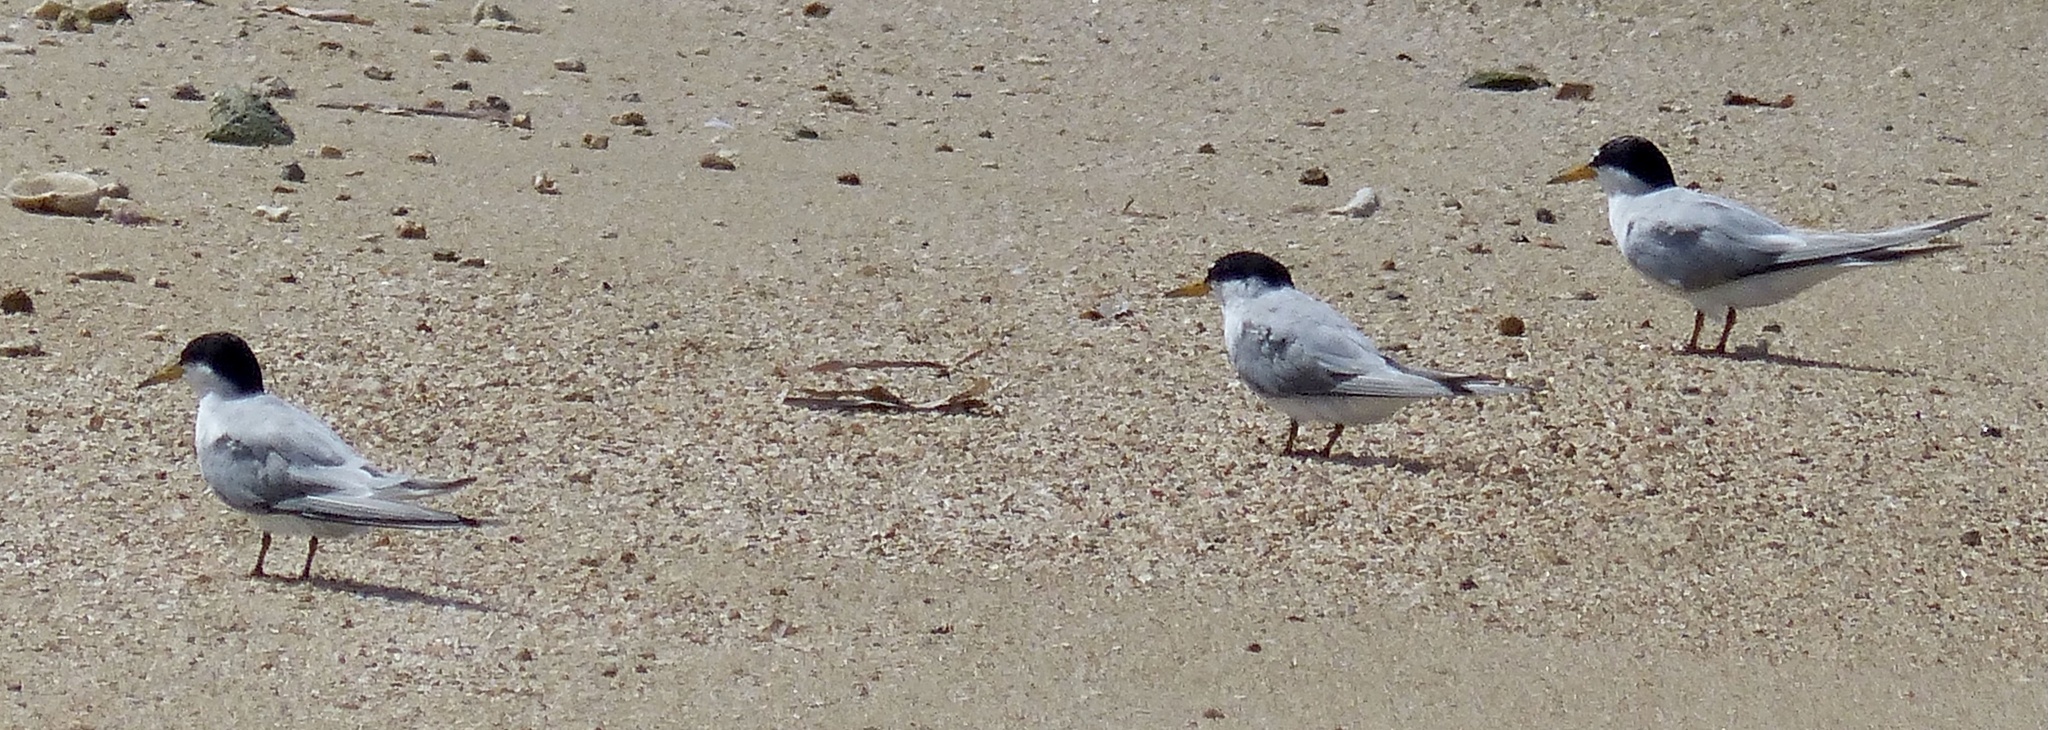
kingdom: Animalia
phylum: Chordata
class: Aves
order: Charadriiformes
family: Laridae
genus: Sternula
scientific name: Sternula antillarum
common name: Least tern
